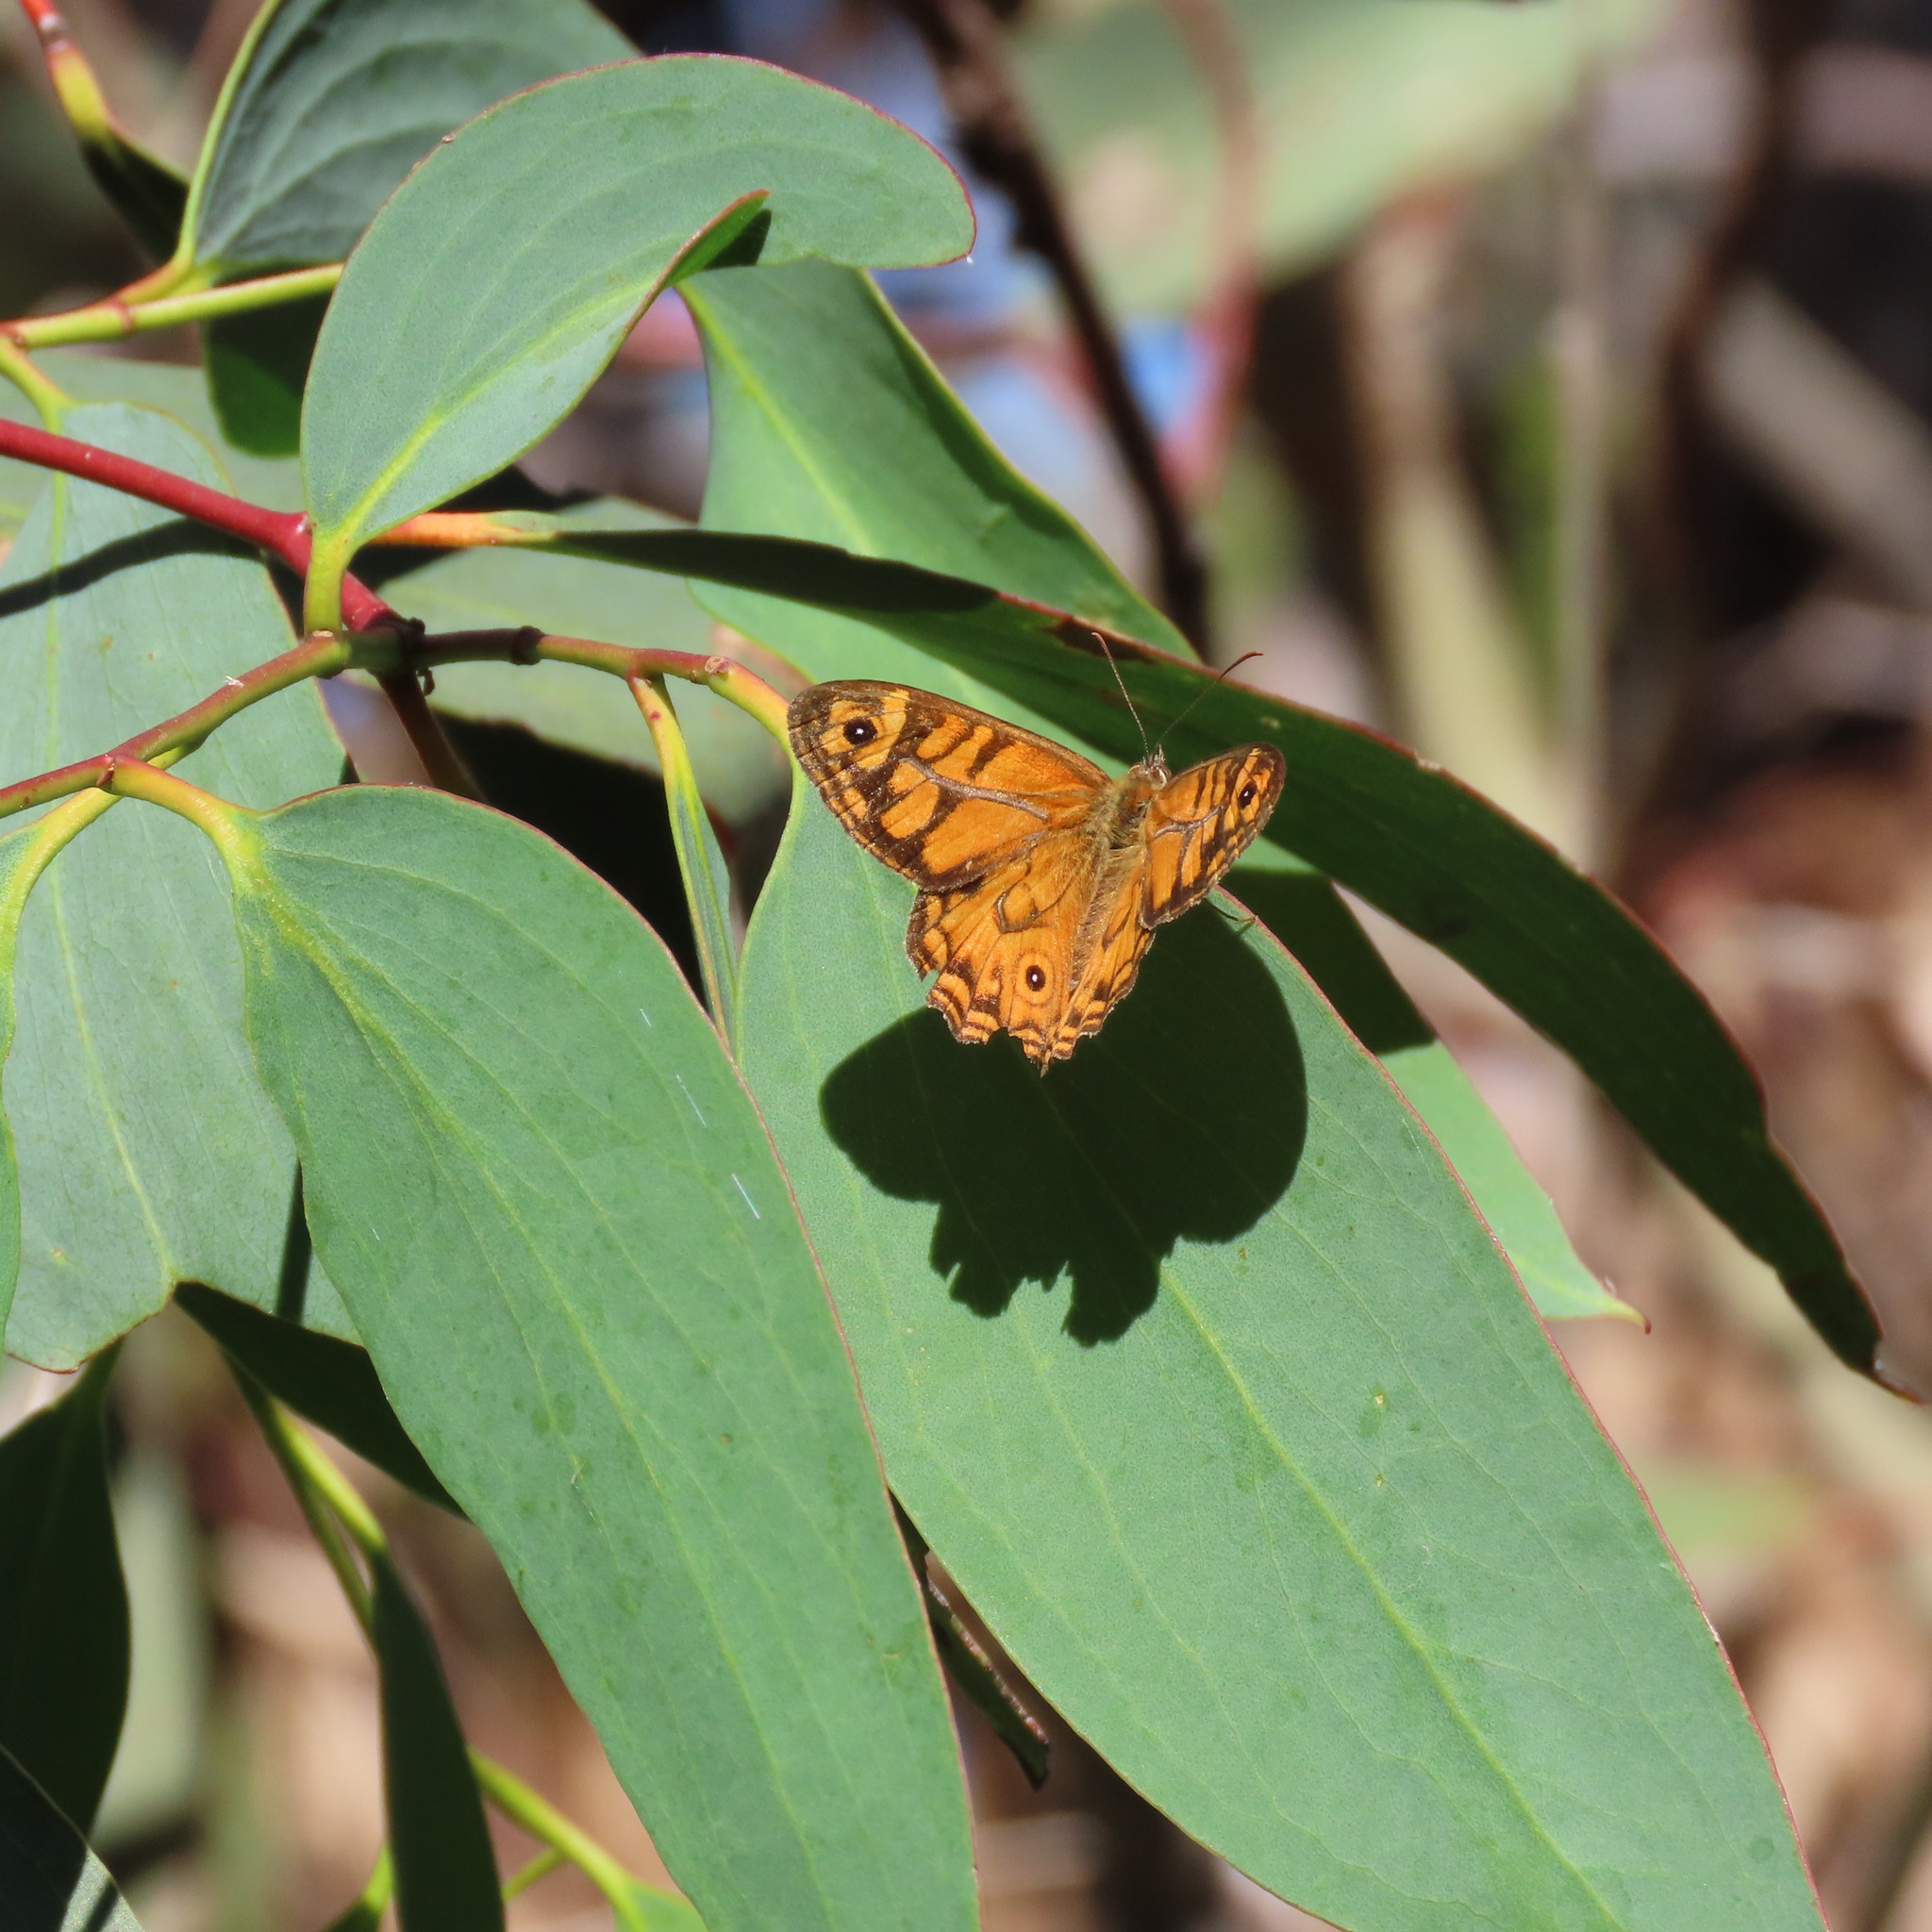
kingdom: Animalia
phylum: Arthropoda
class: Insecta
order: Lepidoptera
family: Nymphalidae
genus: Geitoneura
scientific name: Geitoneura acantha
